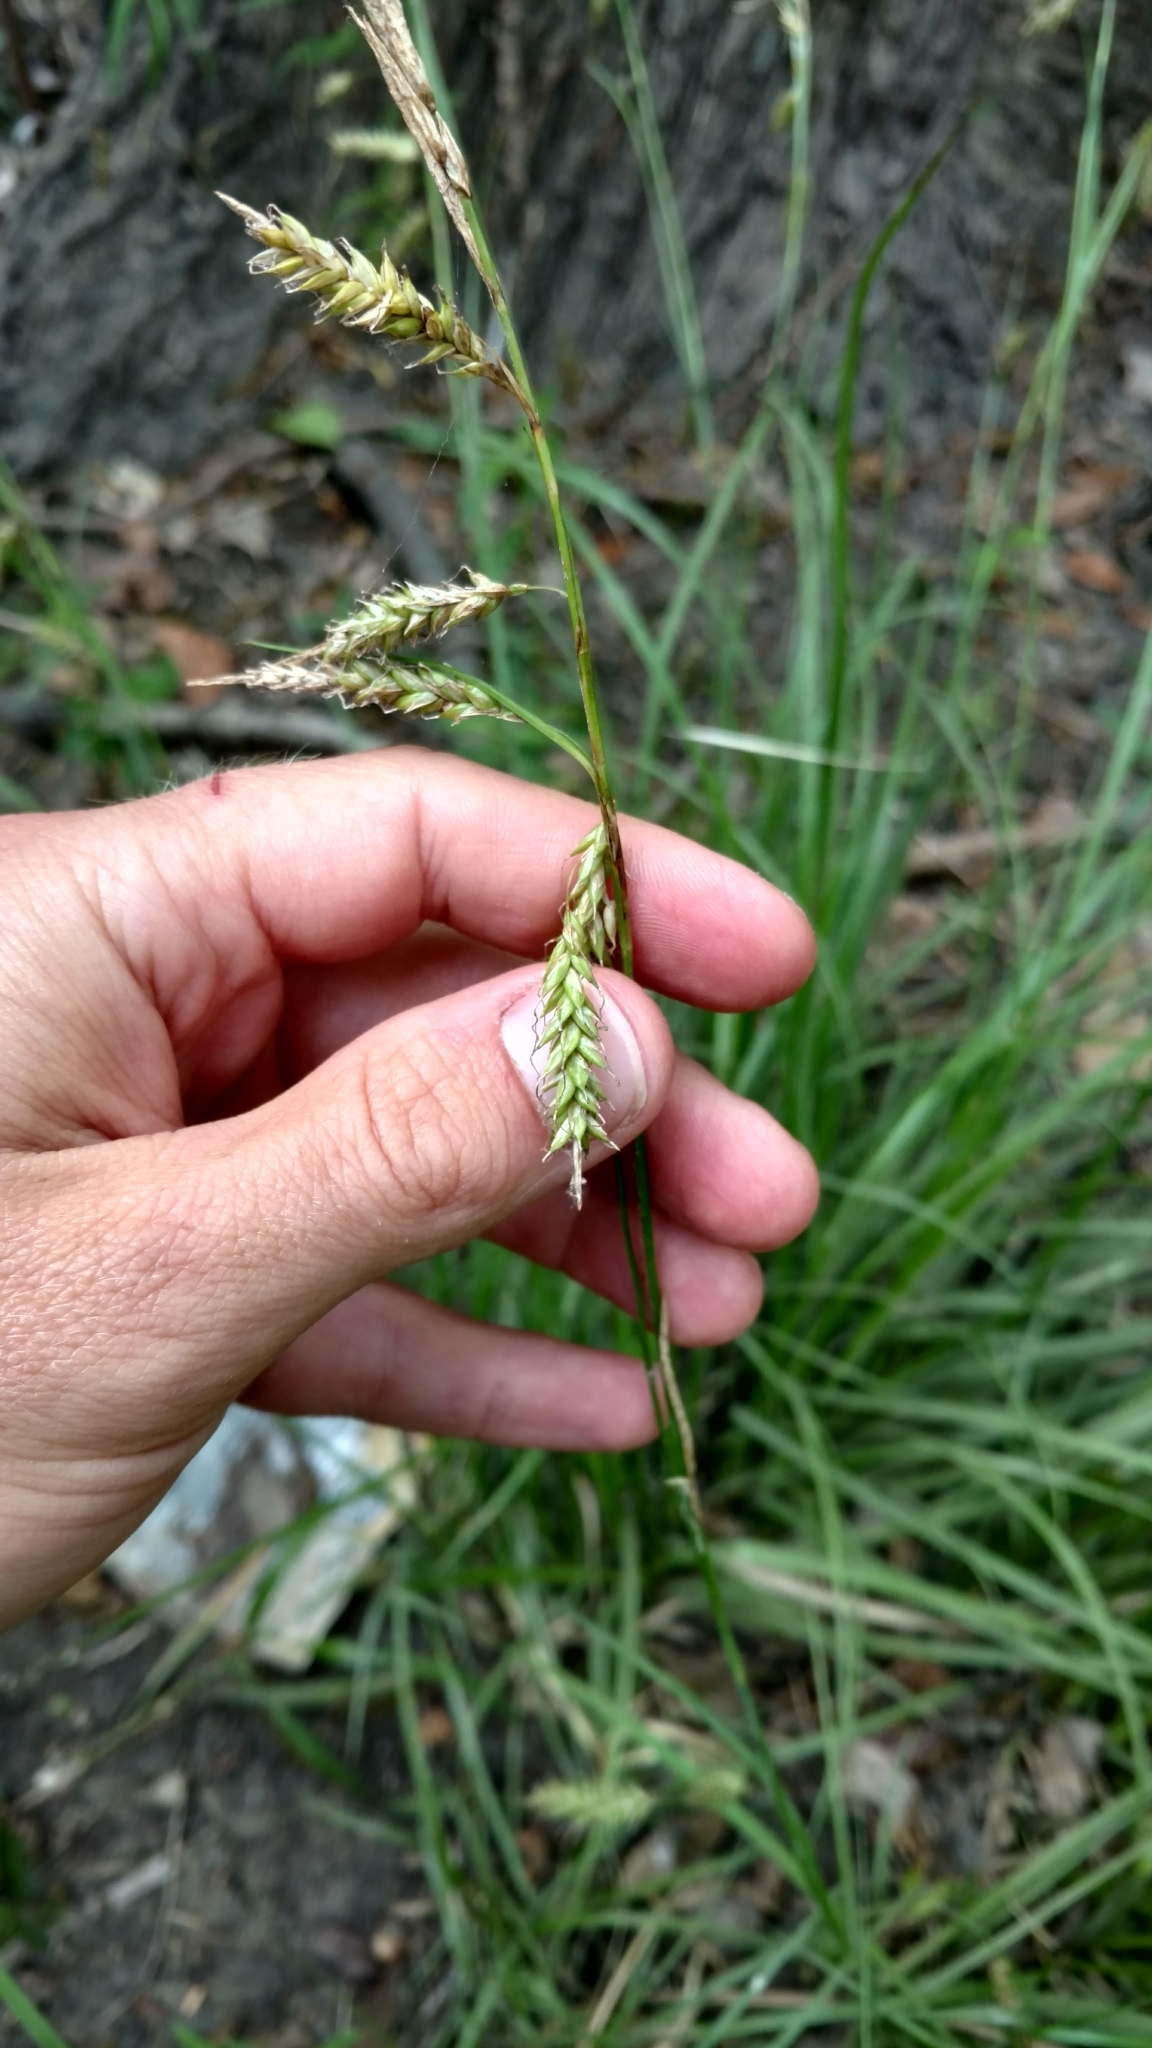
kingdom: Plantae
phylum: Tracheophyta
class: Liliopsida
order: Poales
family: Cyperaceae
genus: Carex
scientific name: Carex cherokeensis
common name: Cherokee sedge
